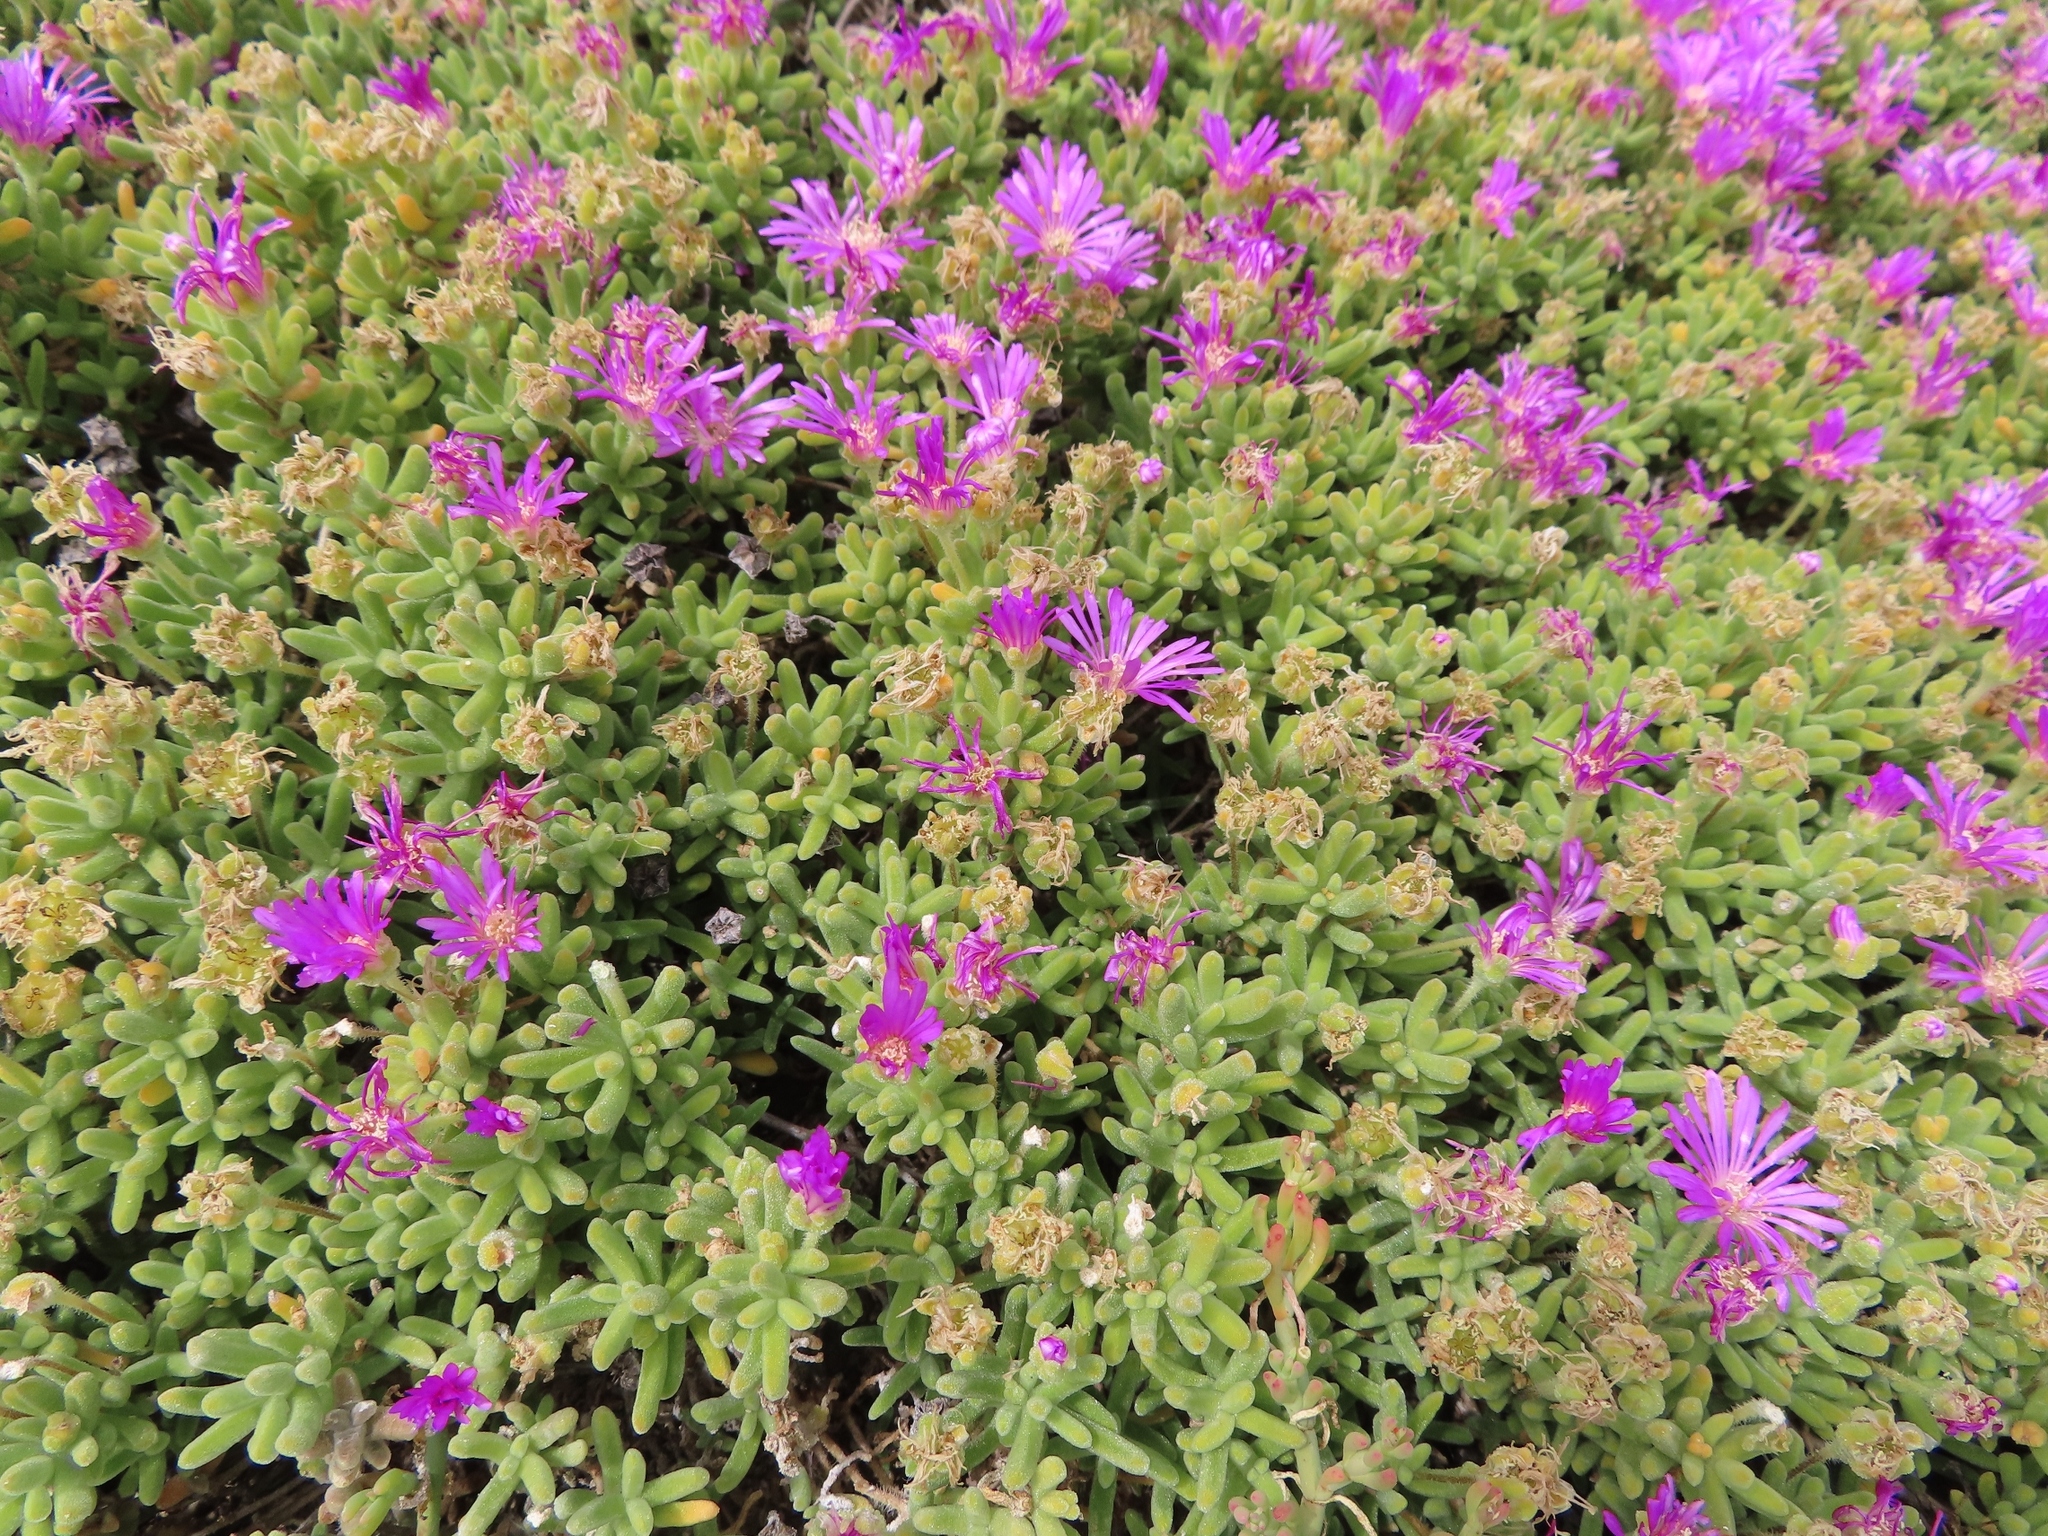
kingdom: Plantae
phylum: Tracheophyta
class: Magnoliopsida
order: Caryophyllales
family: Aizoaceae
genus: Ruschiella
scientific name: Ruschiella argentea
